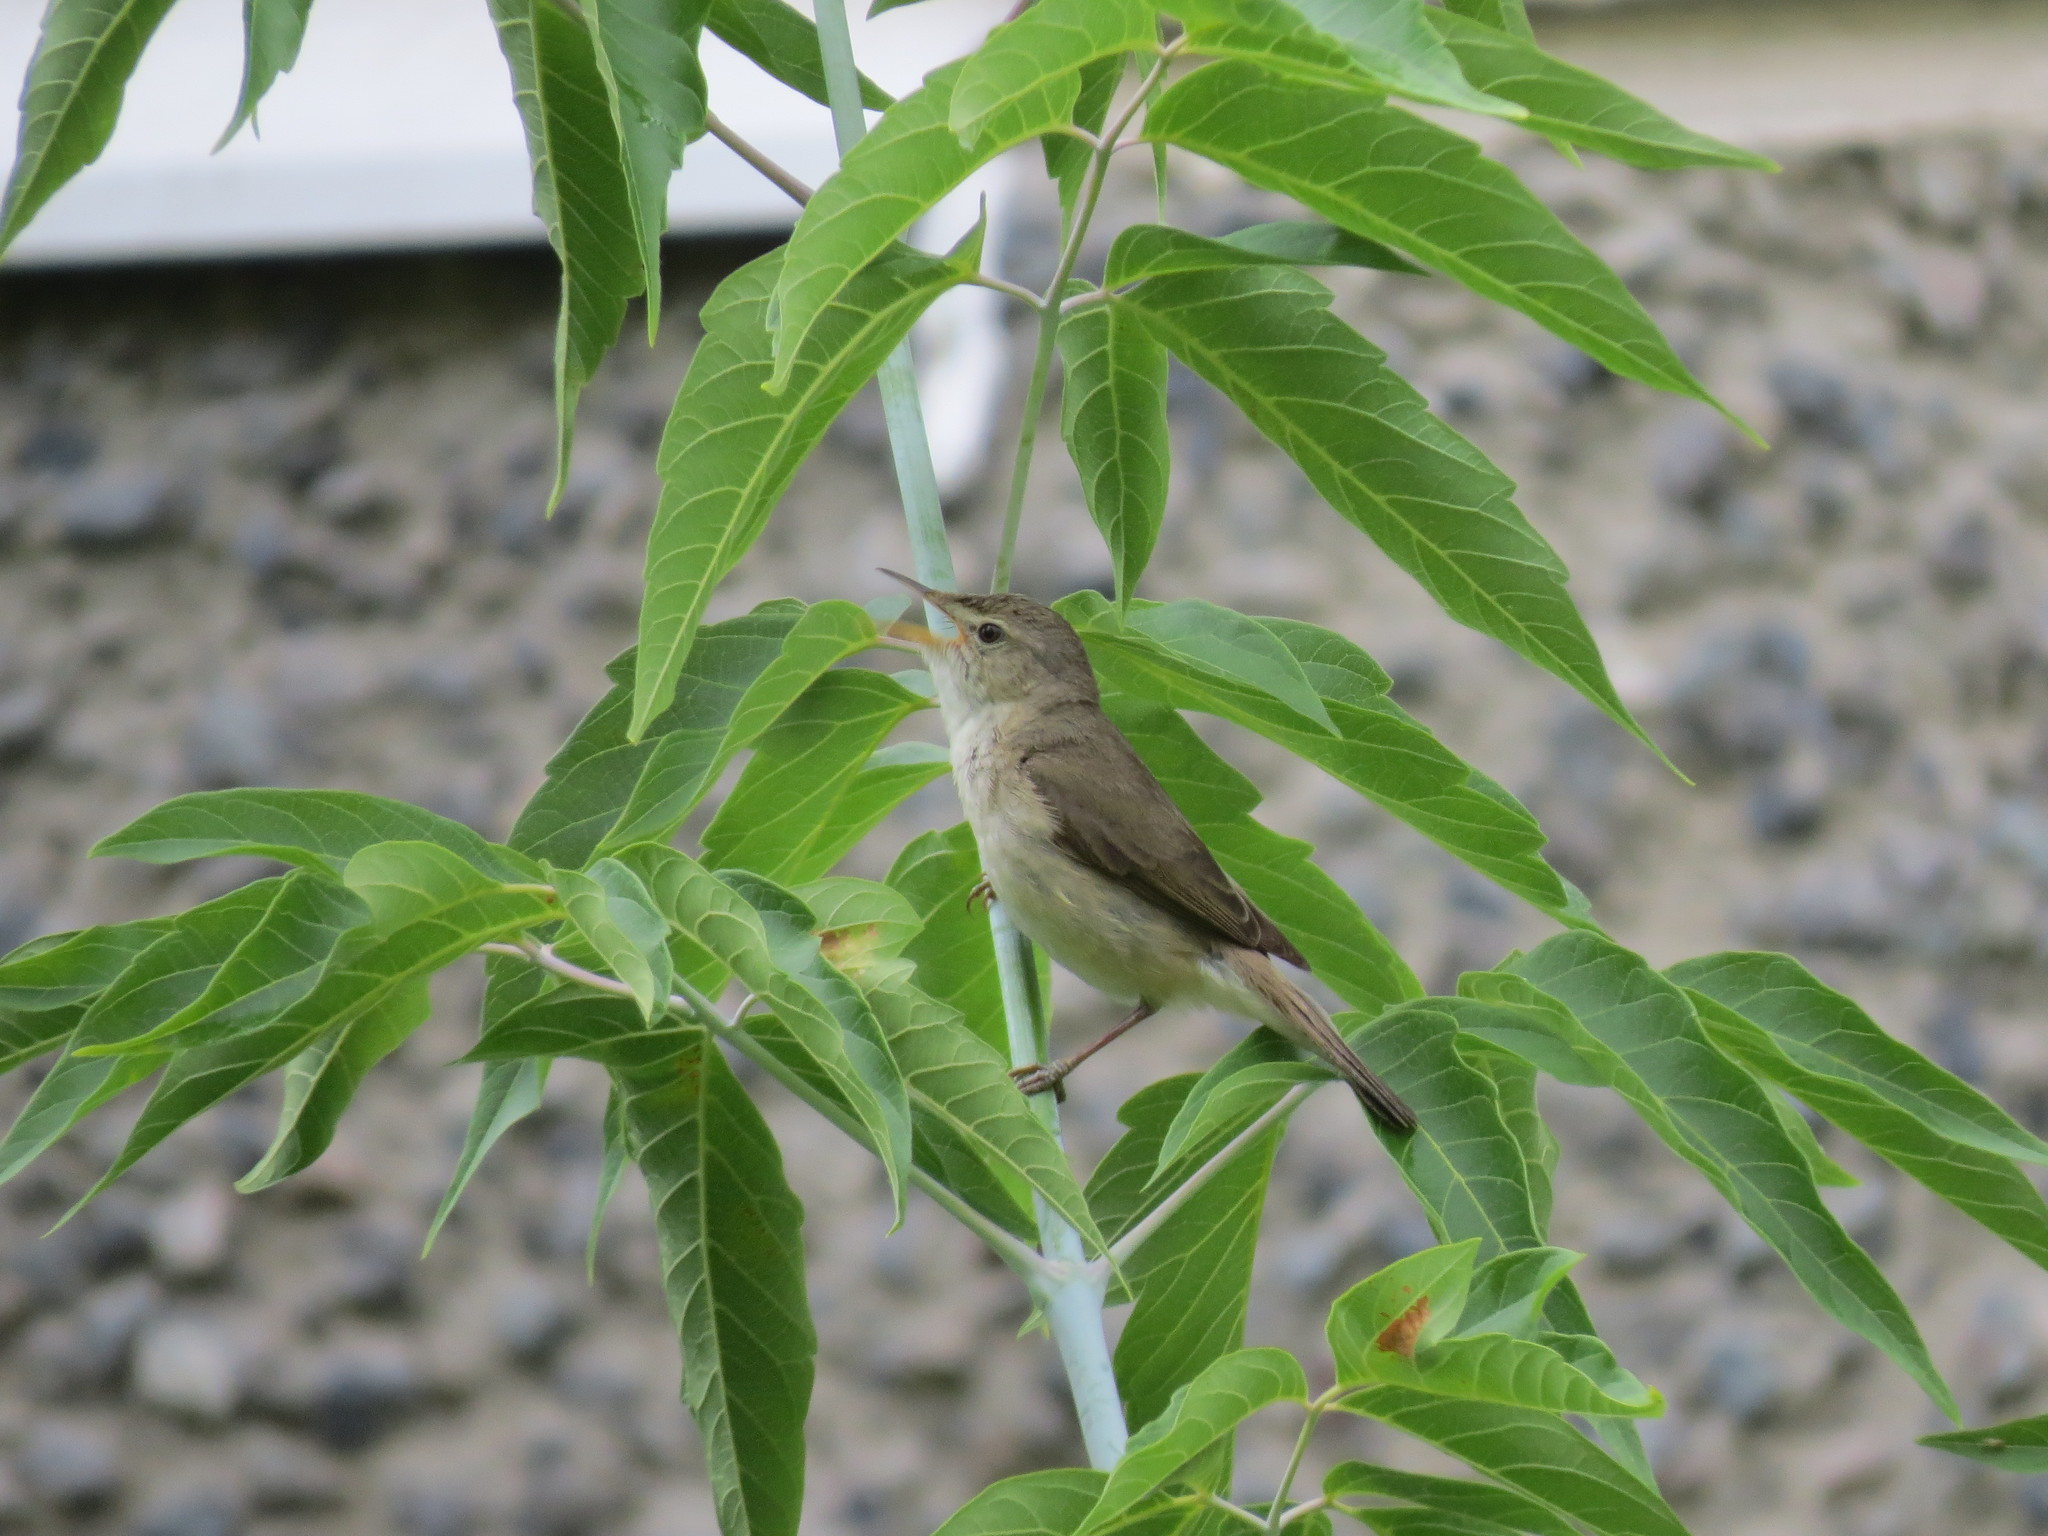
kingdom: Animalia
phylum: Chordata
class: Aves
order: Passeriformes
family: Acrocephalidae
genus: Acrocephalus
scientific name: Acrocephalus dumetorum
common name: Blyth's reed warbler
